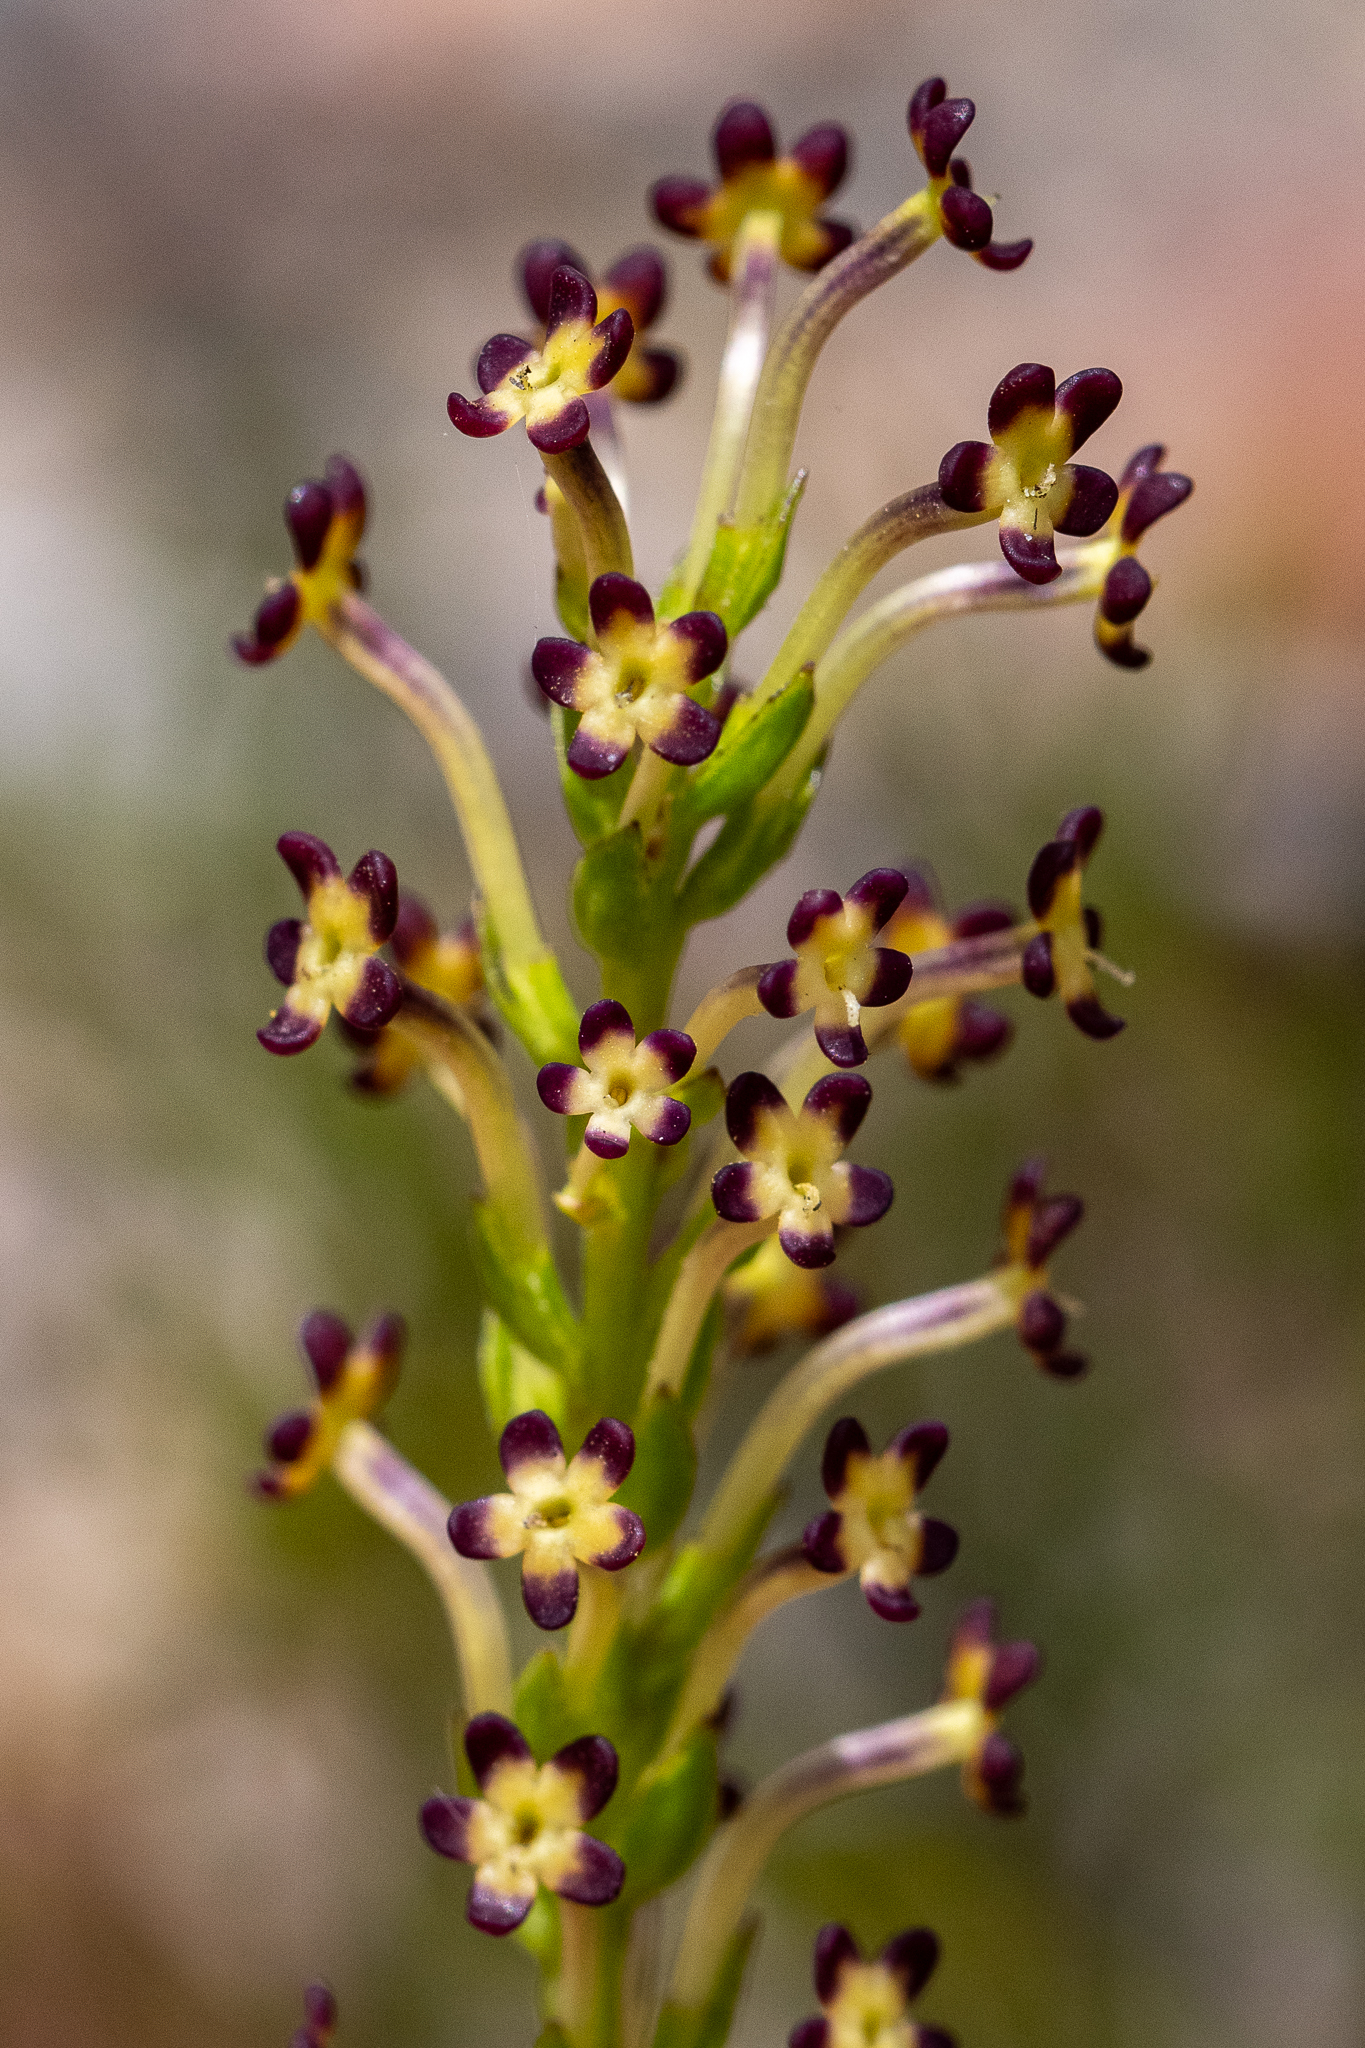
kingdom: Plantae
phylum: Tracheophyta
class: Magnoliopsida
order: Lamiales
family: Scrophulariaceae
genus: Microdon
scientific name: Microdon dubius
